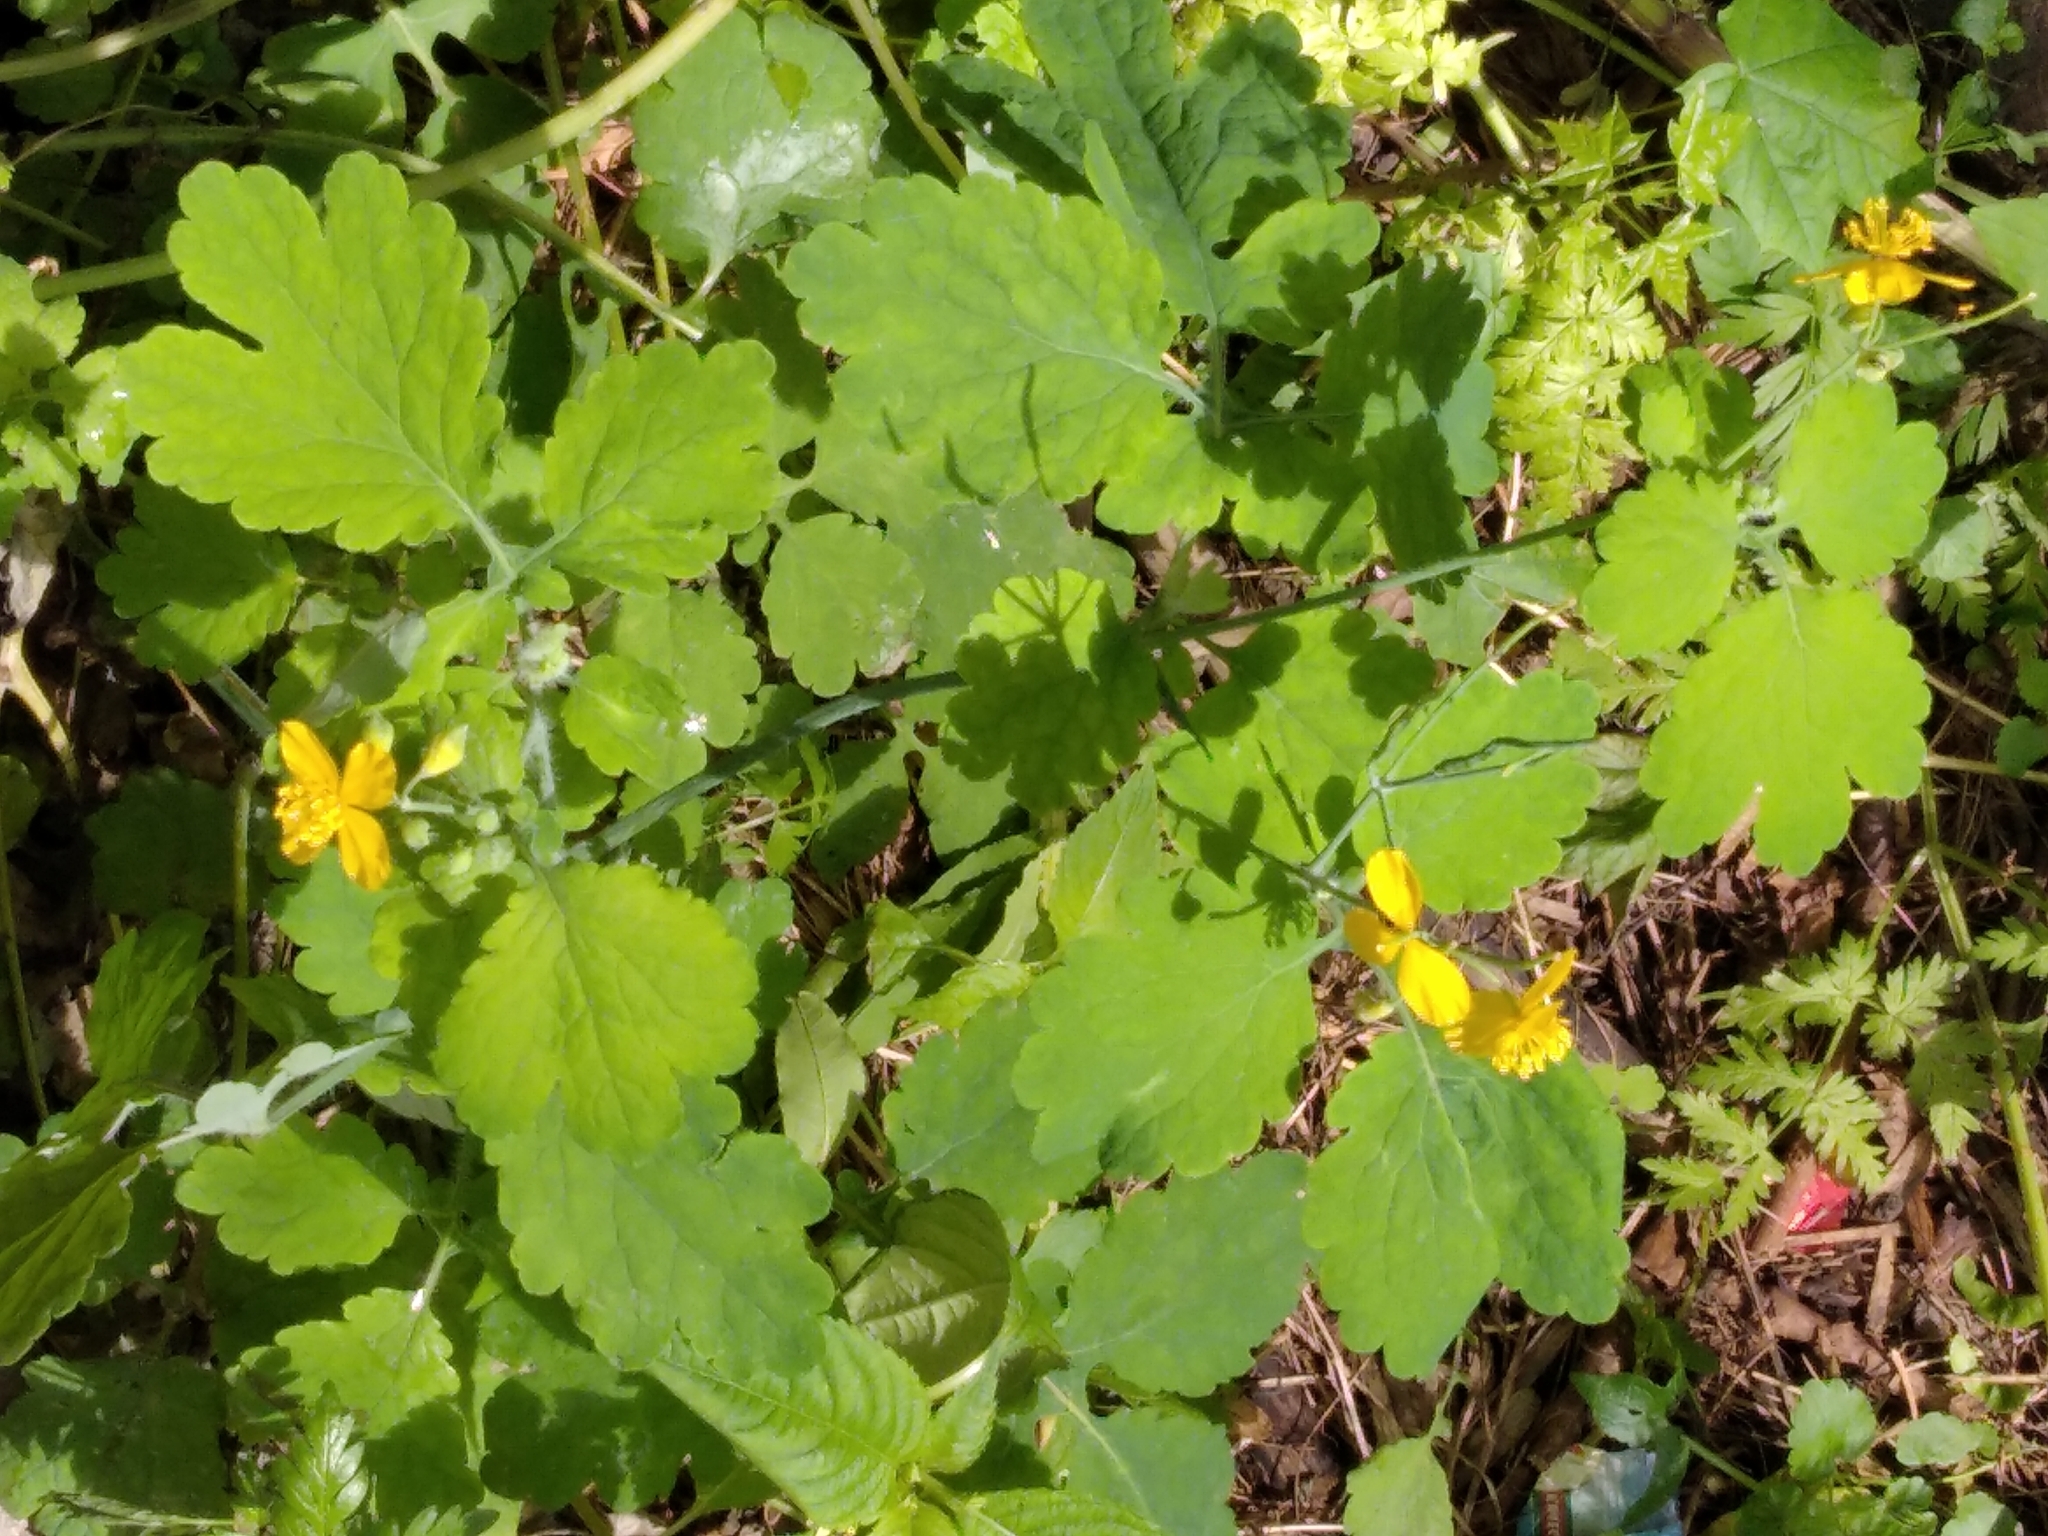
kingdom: Plantae
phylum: Tracheophyta
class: Magnoliopsida
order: Ranunculales
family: Papaveraceae
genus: Chelidonium
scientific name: Chelidonium majus
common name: Greater celandine
